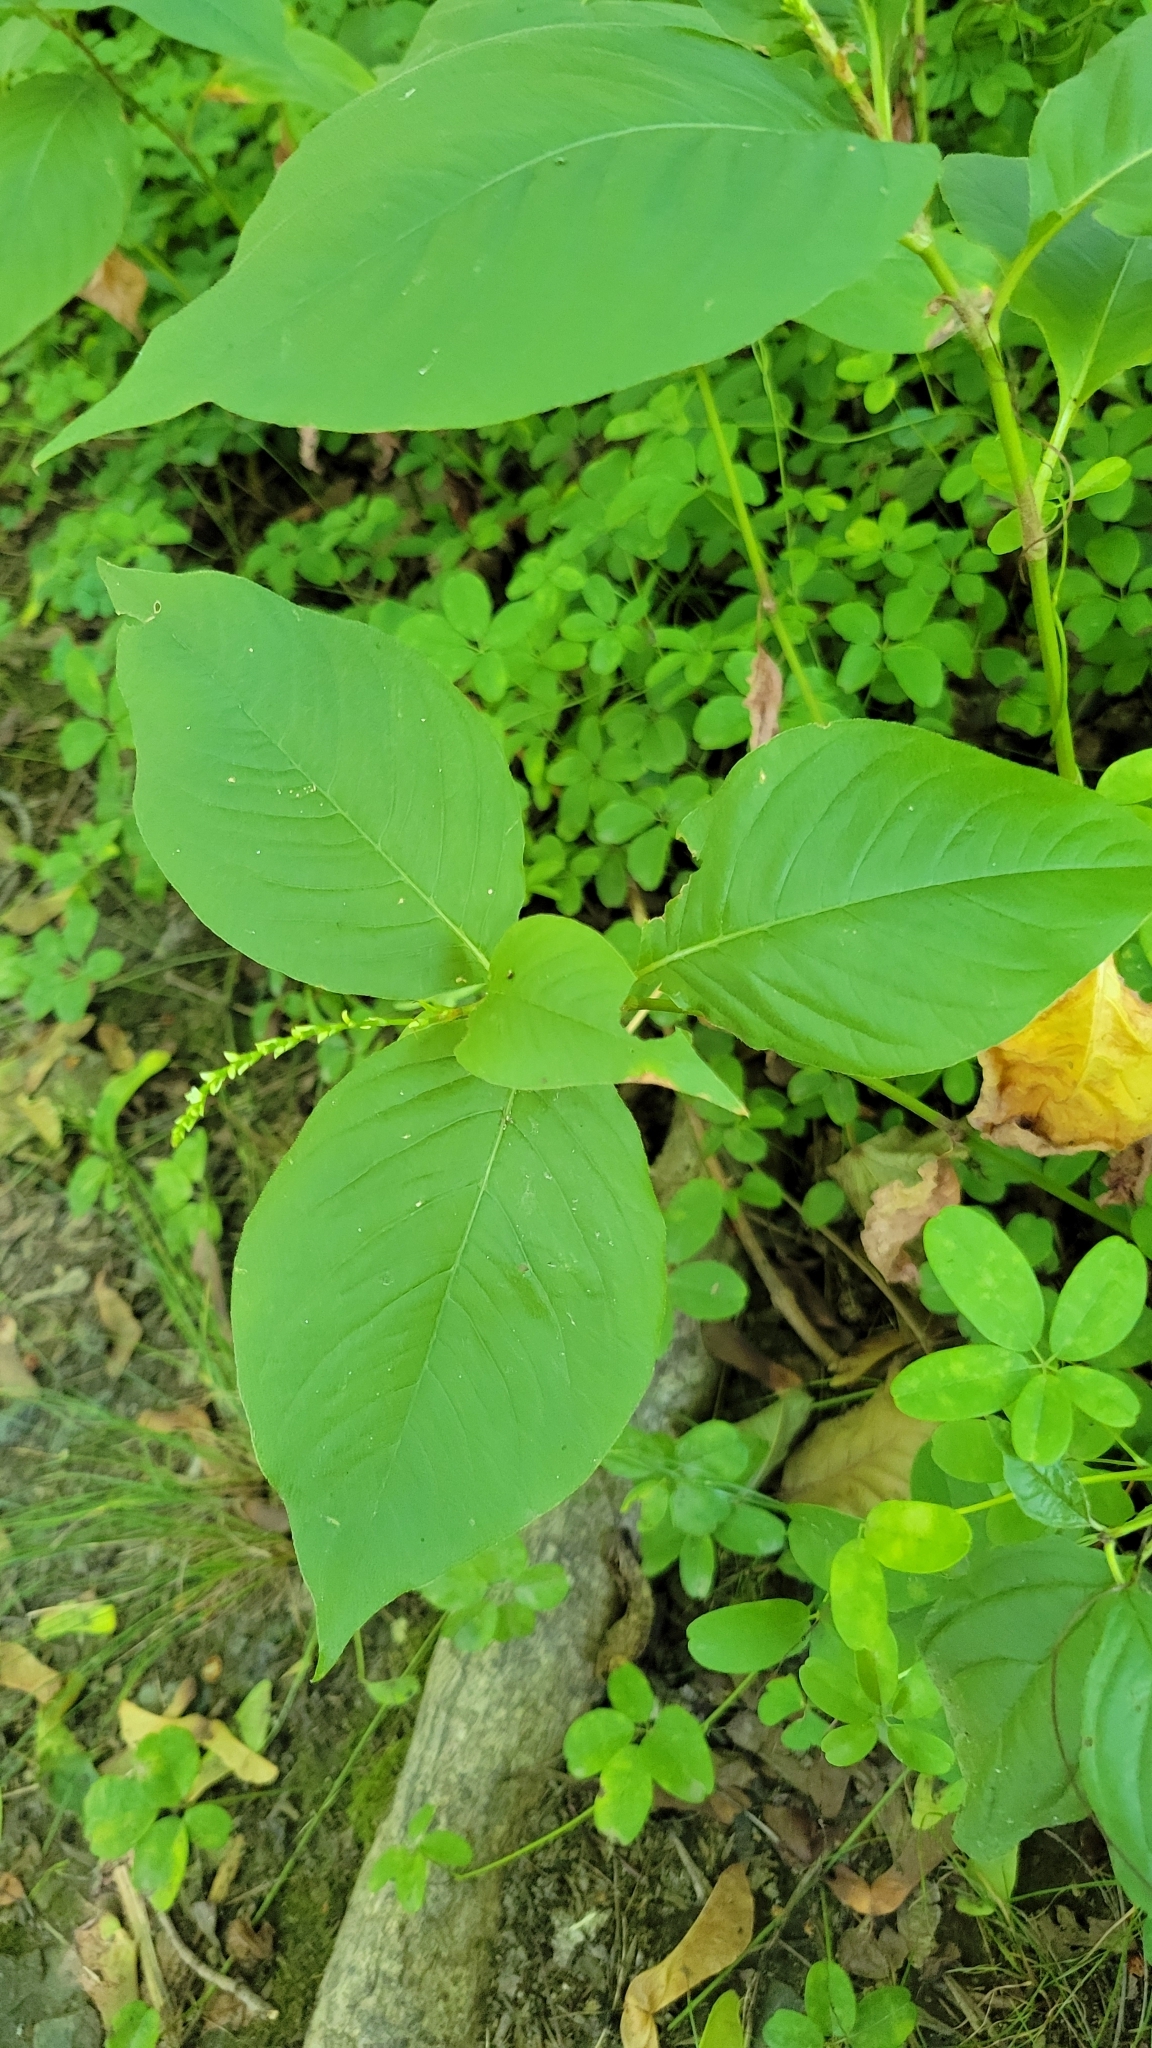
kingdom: Plantae
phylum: Tracheophyta
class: Magnoliopsida
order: Caryophyllales
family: Polygonaceae
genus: Persicaria
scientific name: Persicaria virginiana
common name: Jumpseed
